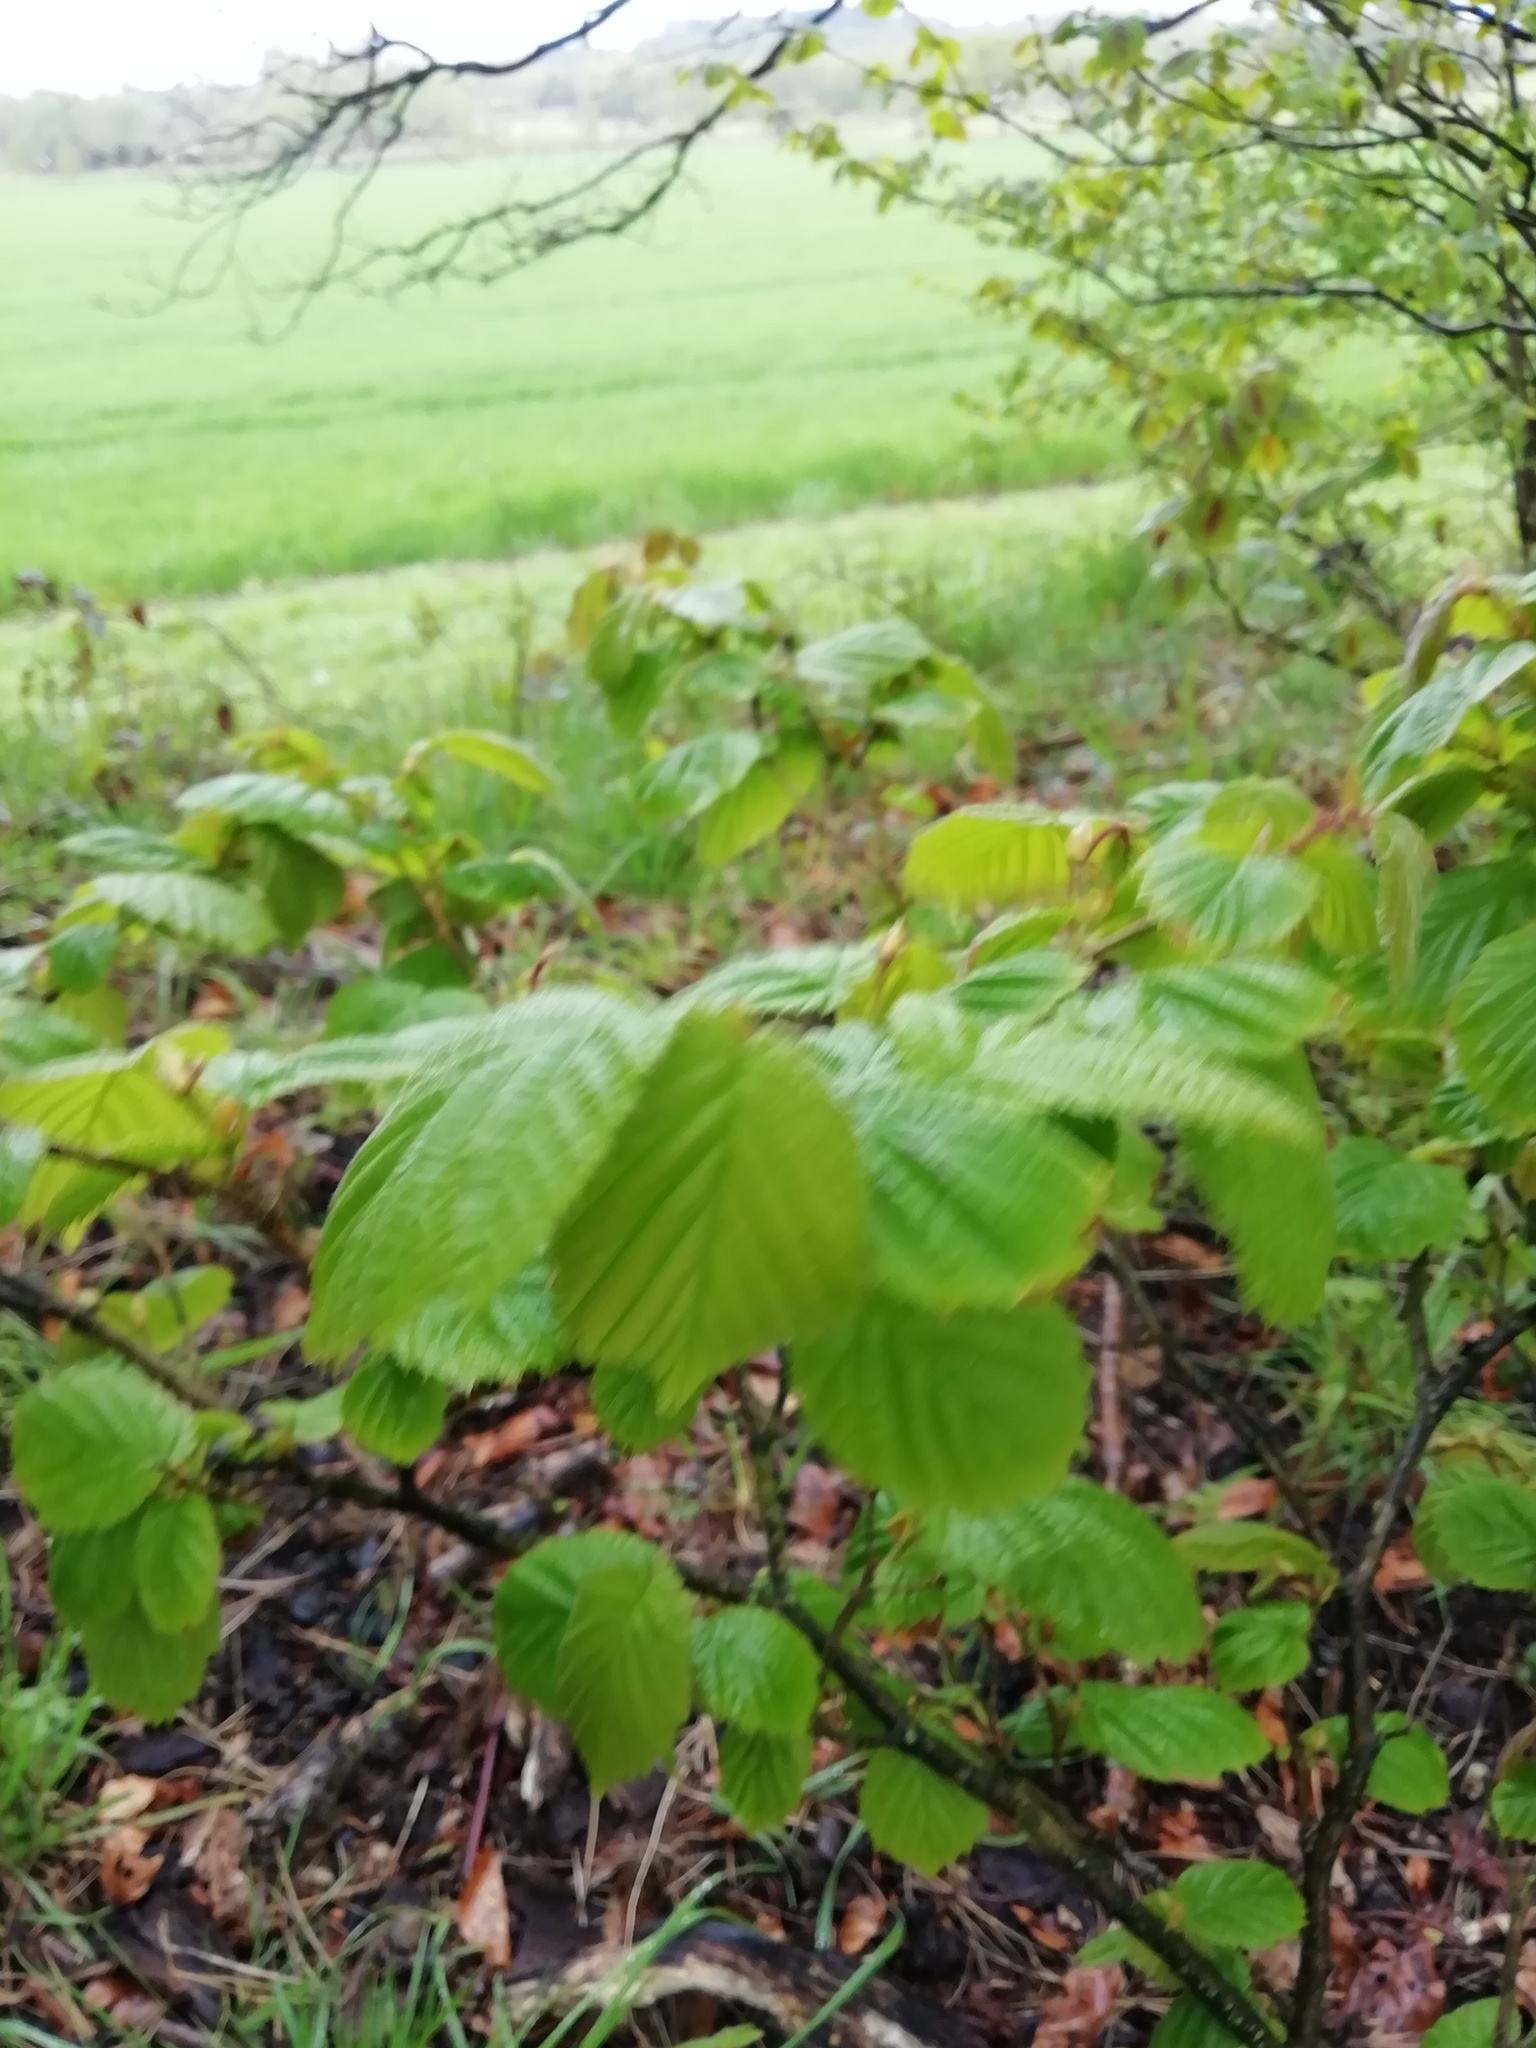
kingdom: Plantae
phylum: Tracheophyta
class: Magnoliopsida
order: Fagales
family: Betulaceae
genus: Corylus
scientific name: Corylus avellana
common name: European hazel
